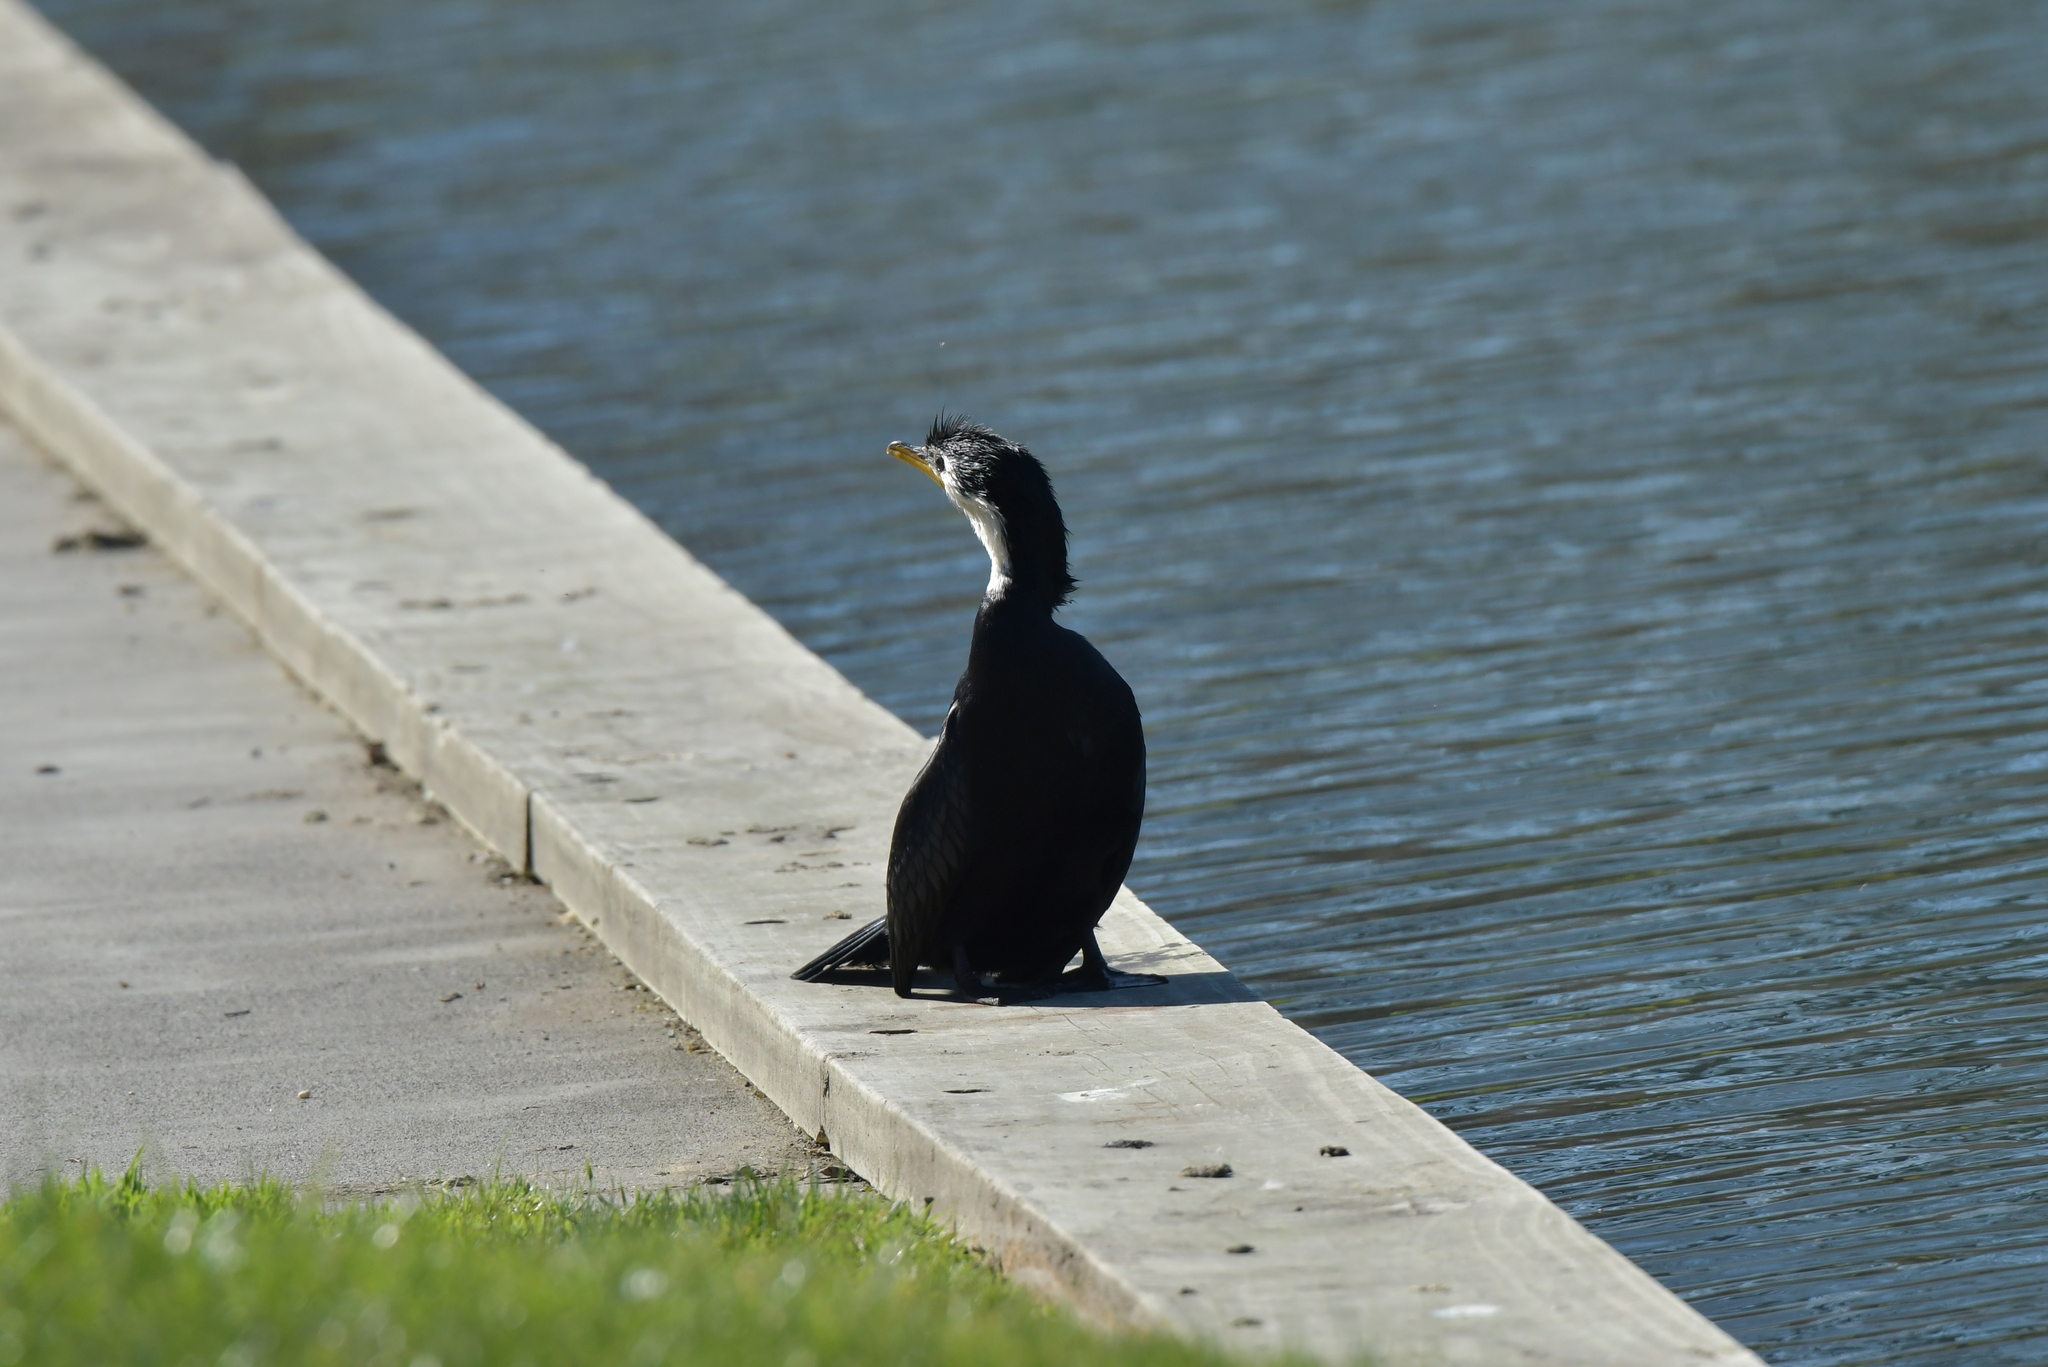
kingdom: Animalia
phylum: Chordata
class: Aves
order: Suliformes
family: Phalacrocoracidae
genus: Microcarbo
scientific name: Microcarbo melanoleucos
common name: Little pied cormorant
